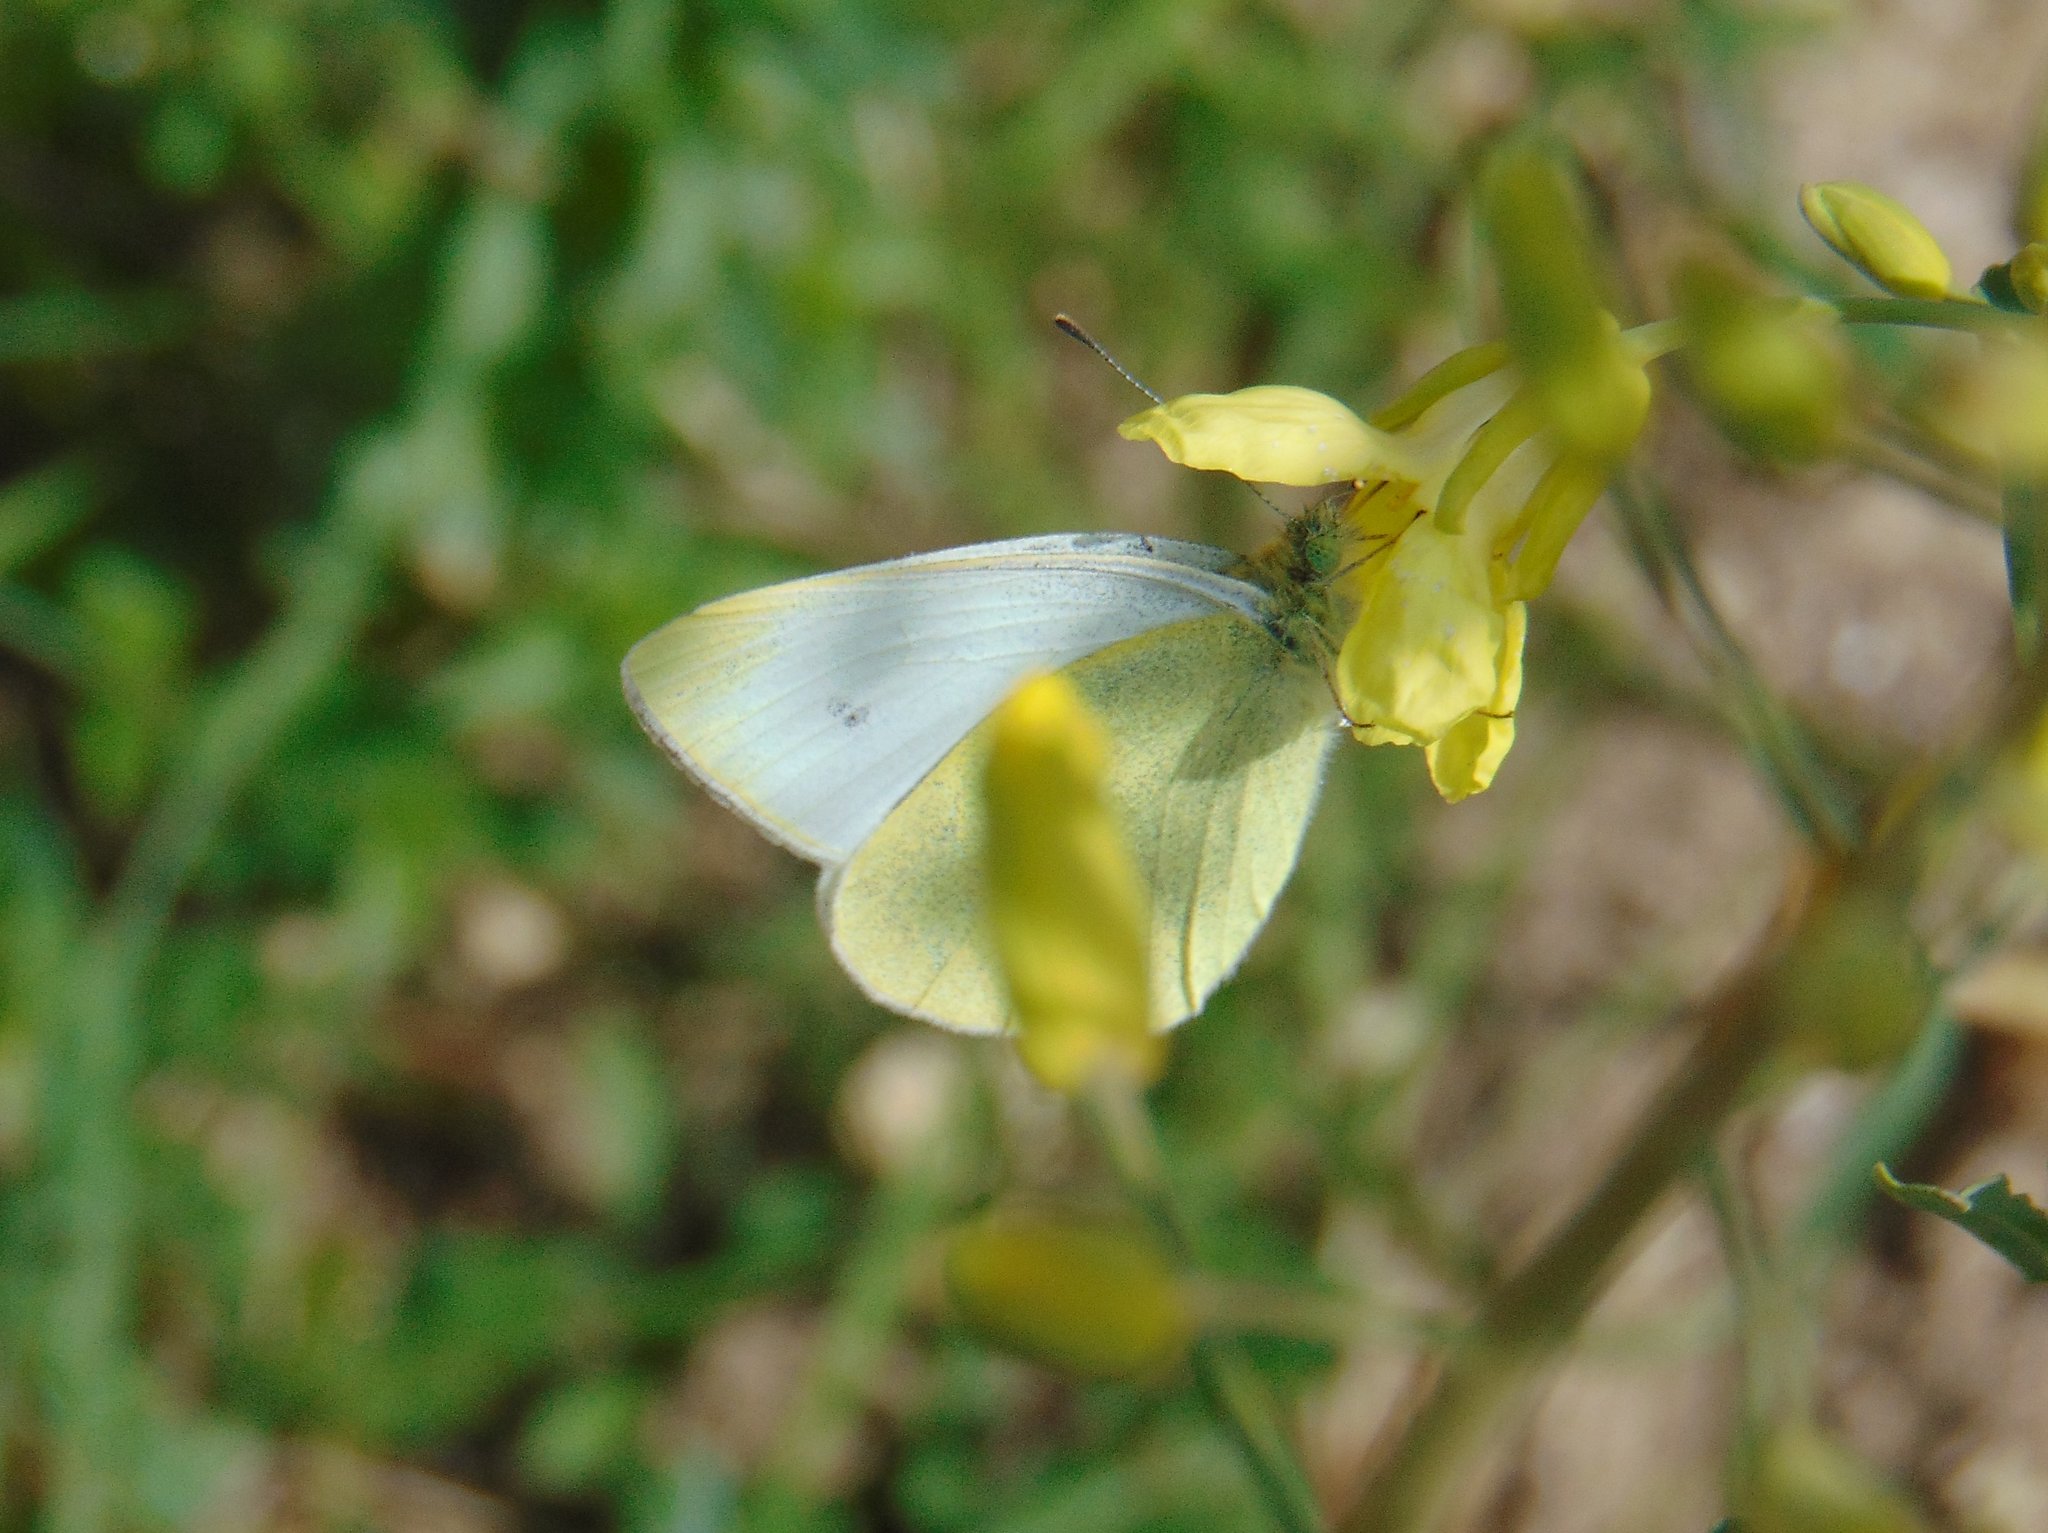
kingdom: Animalia
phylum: Arthropoda
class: Insecta
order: Lepidoptera
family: Pieridae
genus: Pieris
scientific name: Pieris mannii
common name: Southern small white
